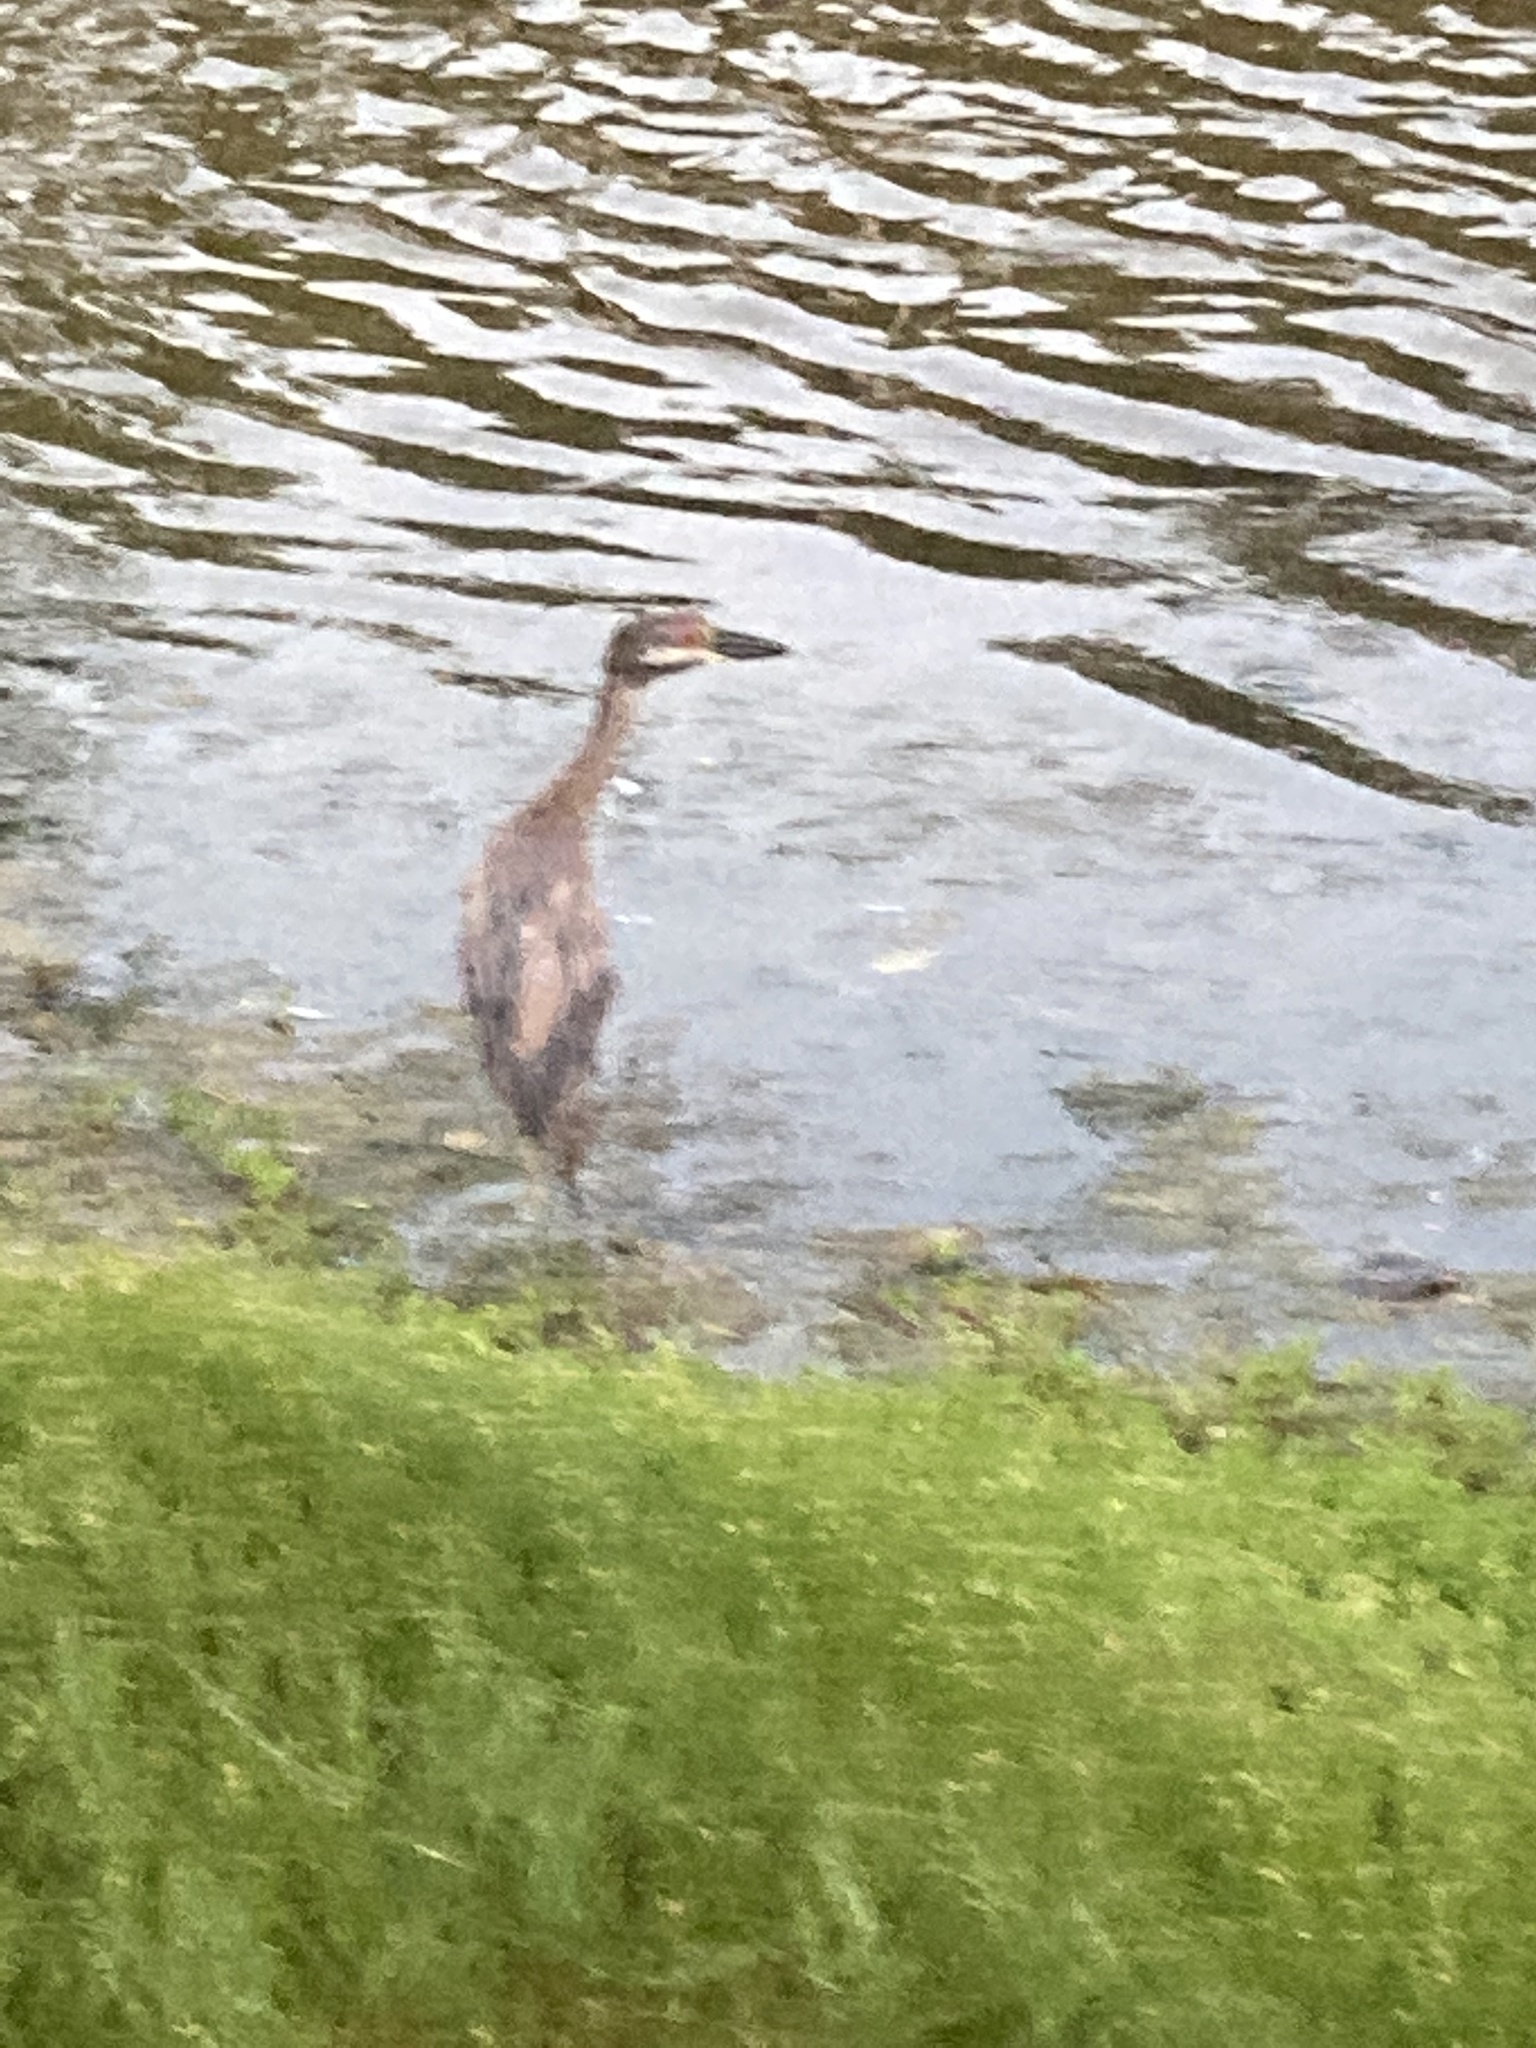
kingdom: Animalia
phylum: Chordata
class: Aves
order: Pelecaniformes
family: Ardeidae
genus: Nyctanassa
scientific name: Nyctanassa violacea
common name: Yellow-crowned night heron
